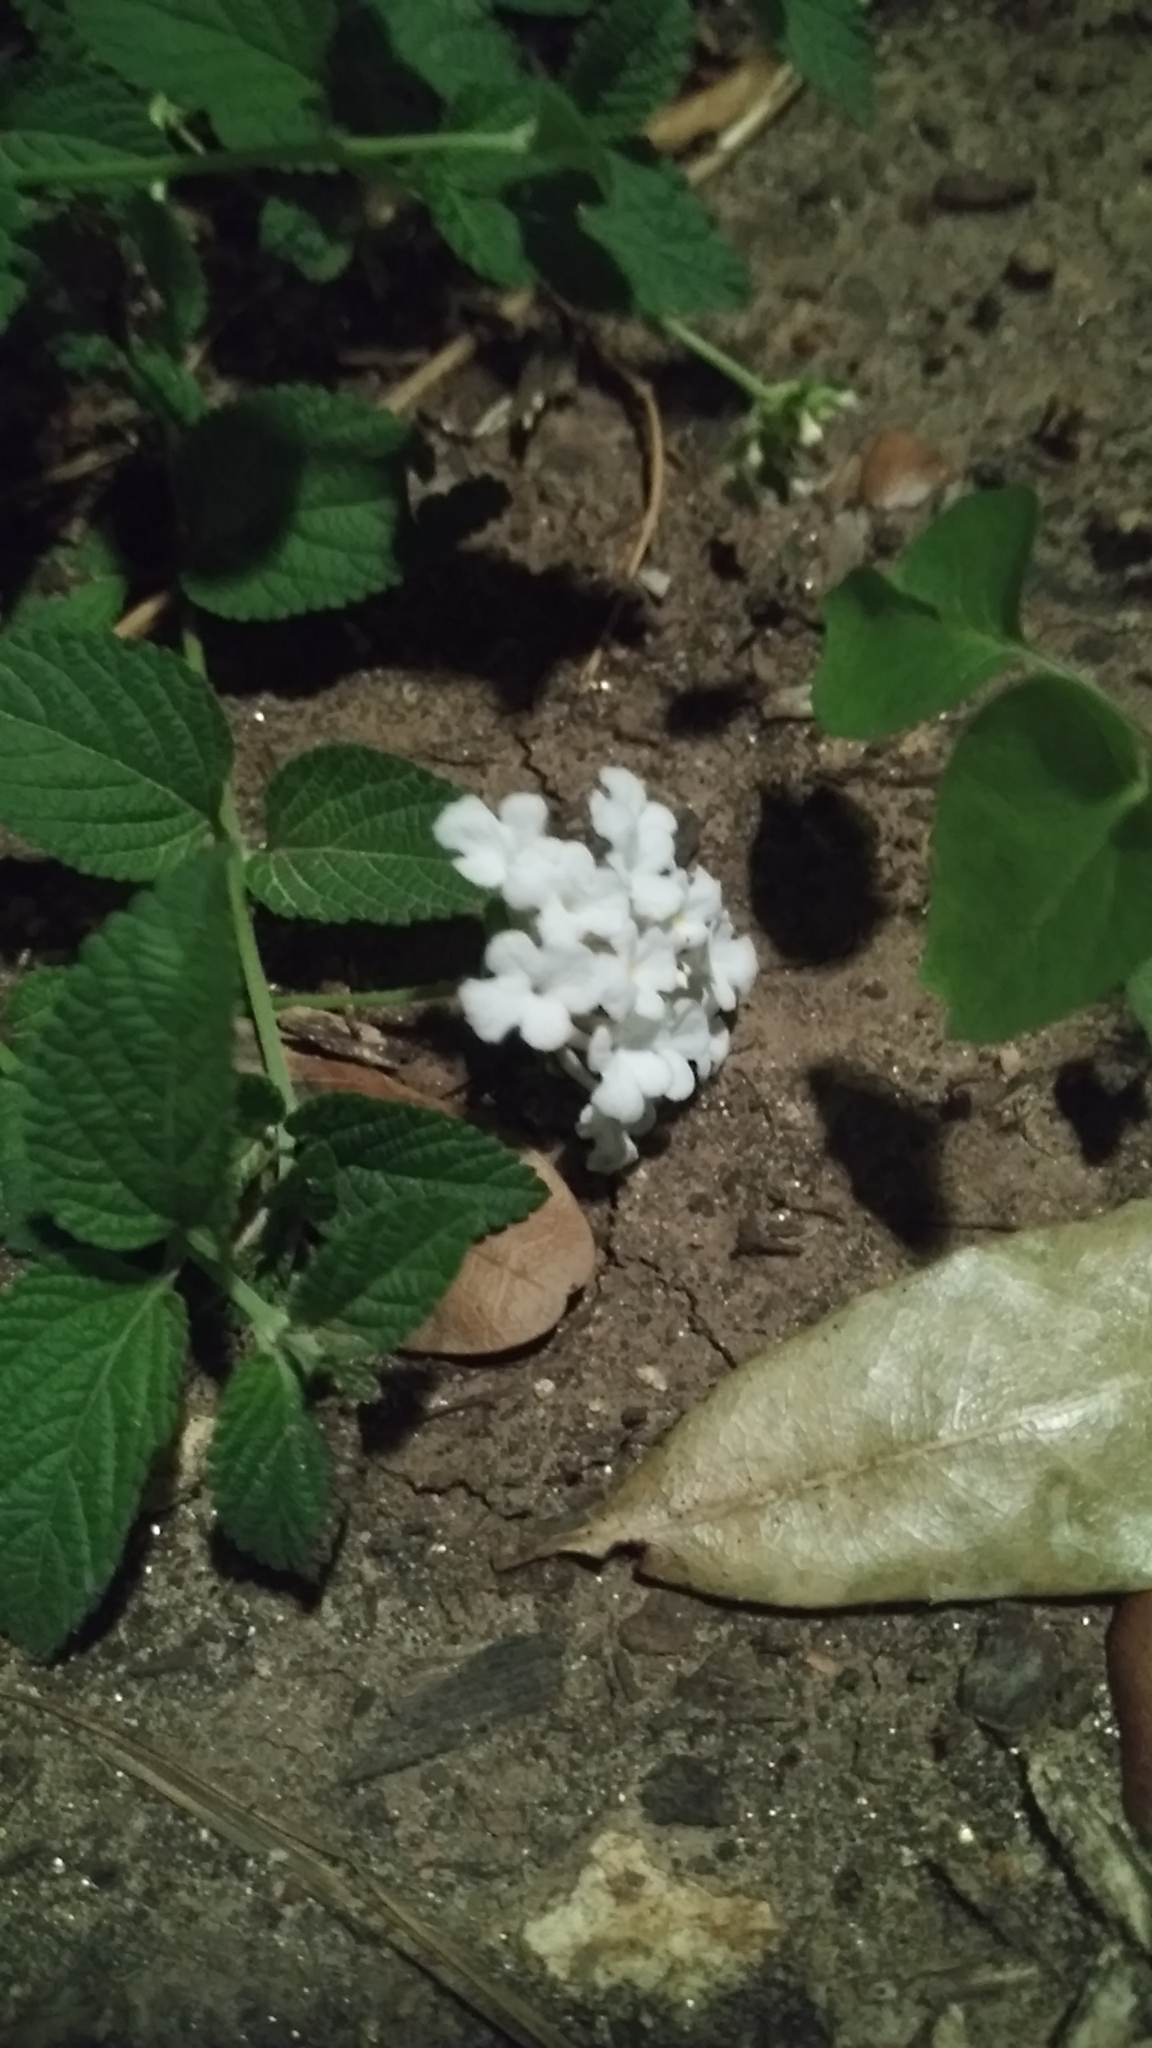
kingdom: Plantae
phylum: Tracheophyta
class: Magnoliopsida
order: Lamiales
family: Verbenaceae
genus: Lantana
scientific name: Lantana montevidensis
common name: Trailing shrubverbena
